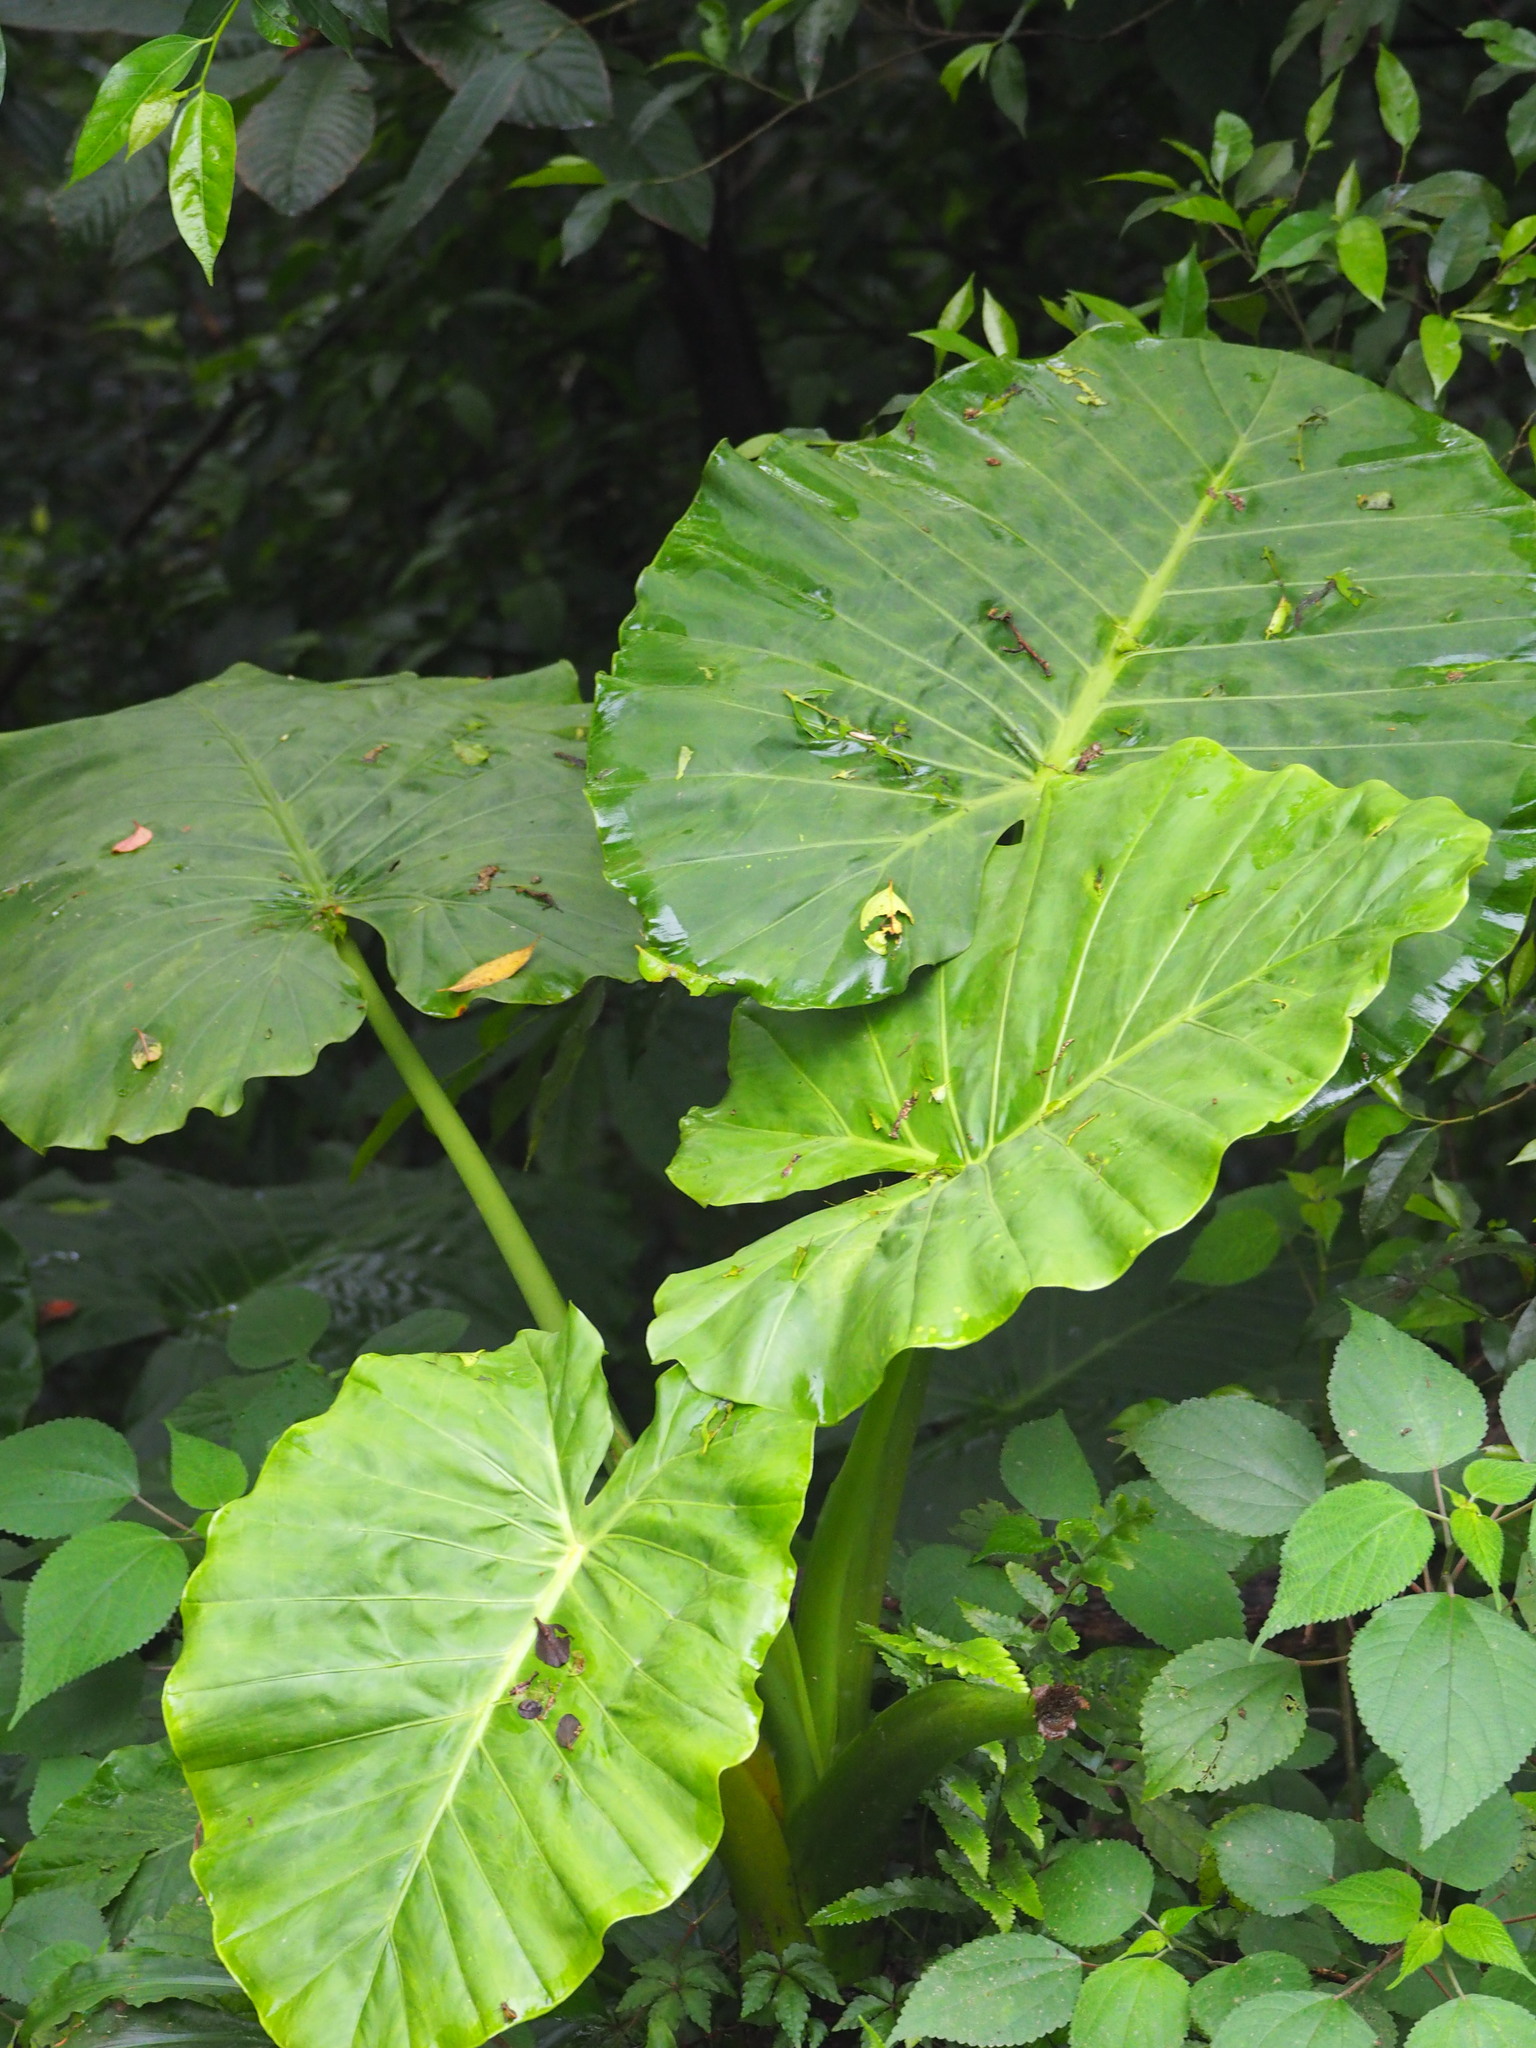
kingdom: Plantae
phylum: Tracheophyta
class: Liliopsida
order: Alismatales
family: Araceae
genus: Alocasia
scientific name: Alocasia odora
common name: Asian taro
